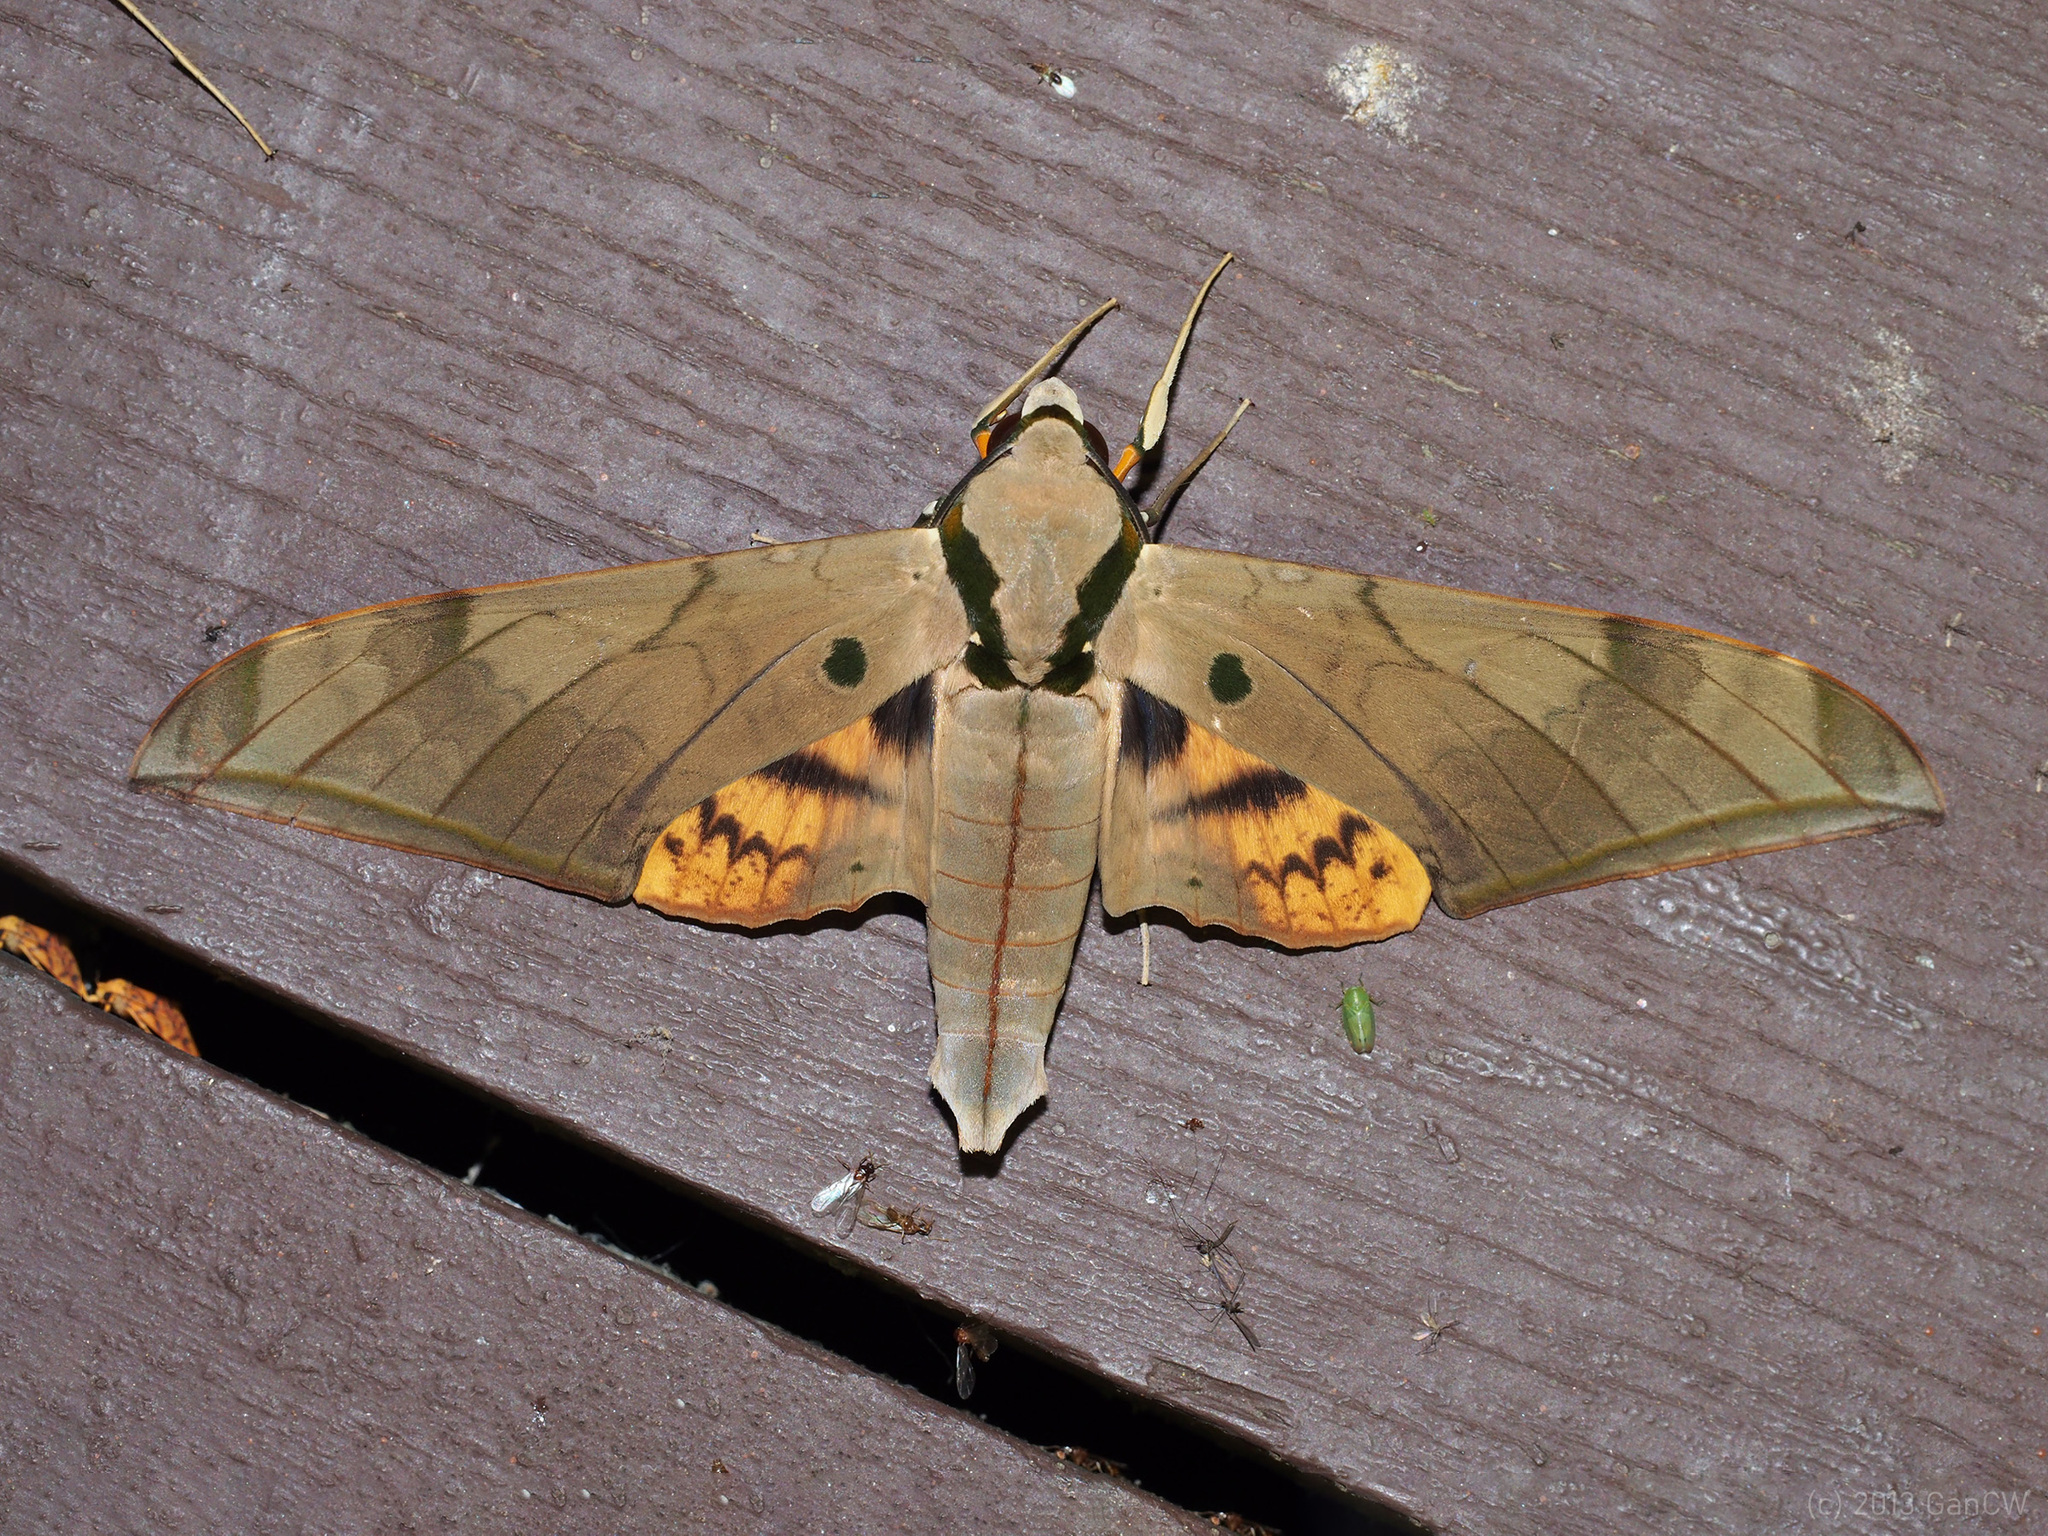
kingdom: Animalia
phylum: Arthropoda
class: Insecta
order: Lepidoptera
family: Sphingidae
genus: Ambulyx
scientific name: Ambulyx pryeri
